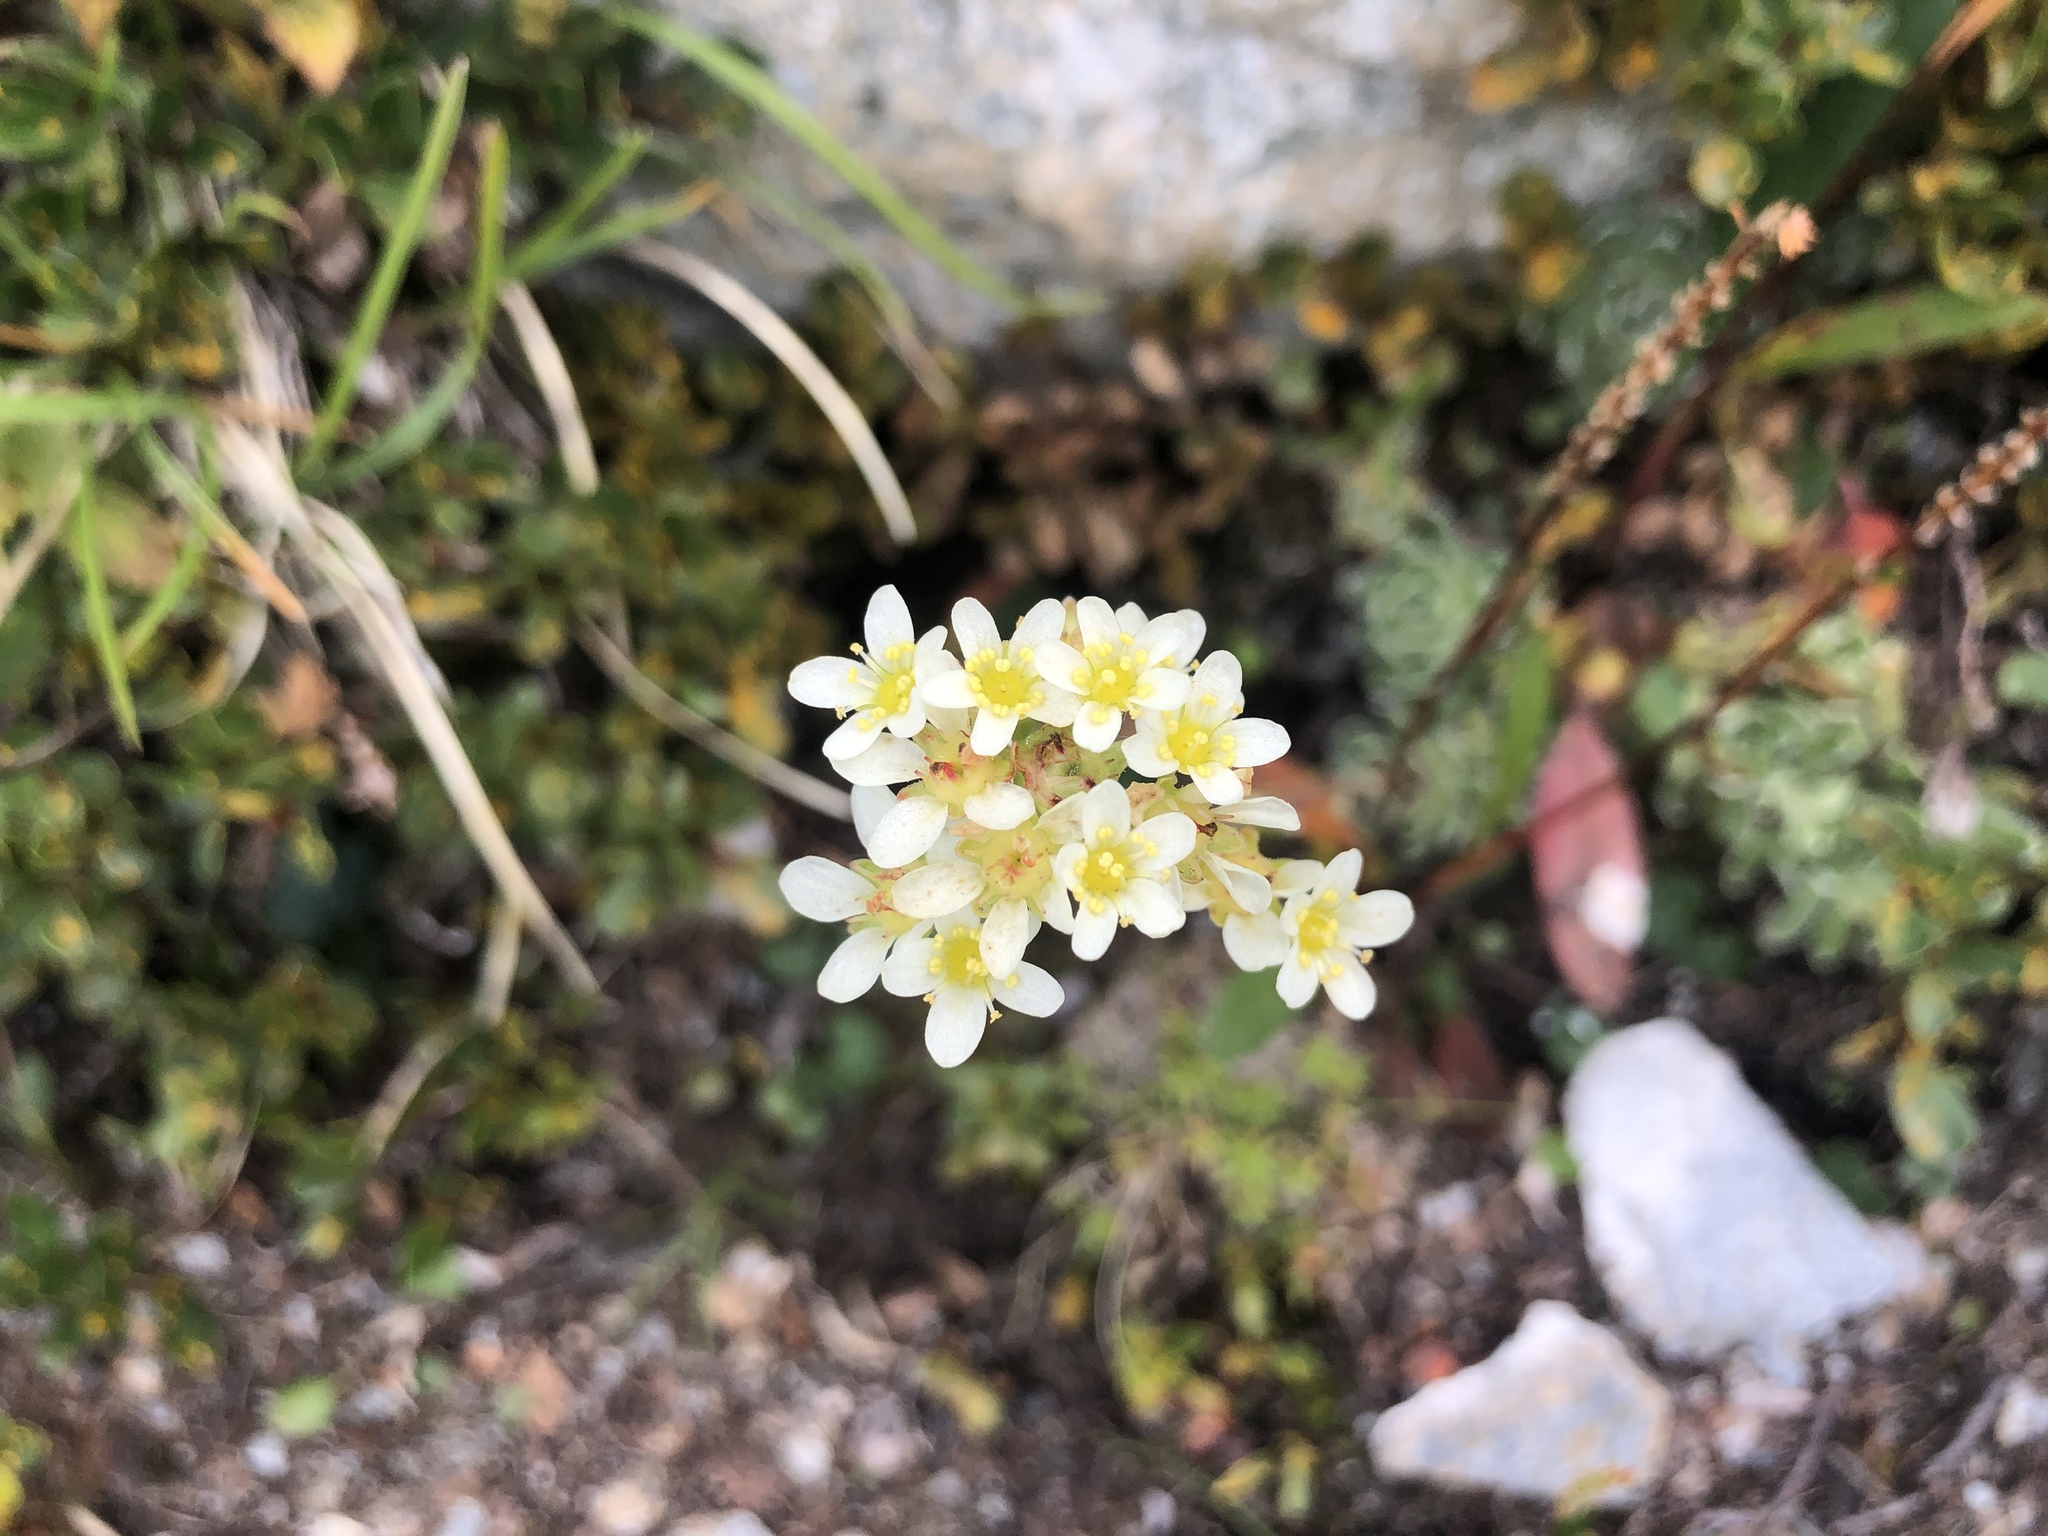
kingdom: Plantae
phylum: Tracheophyta
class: Magnoliopsida
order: Saxifragales
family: Saxifragaceae
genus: Saxifraga
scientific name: Saxifraga paniculata
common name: Livelong saxifrage
